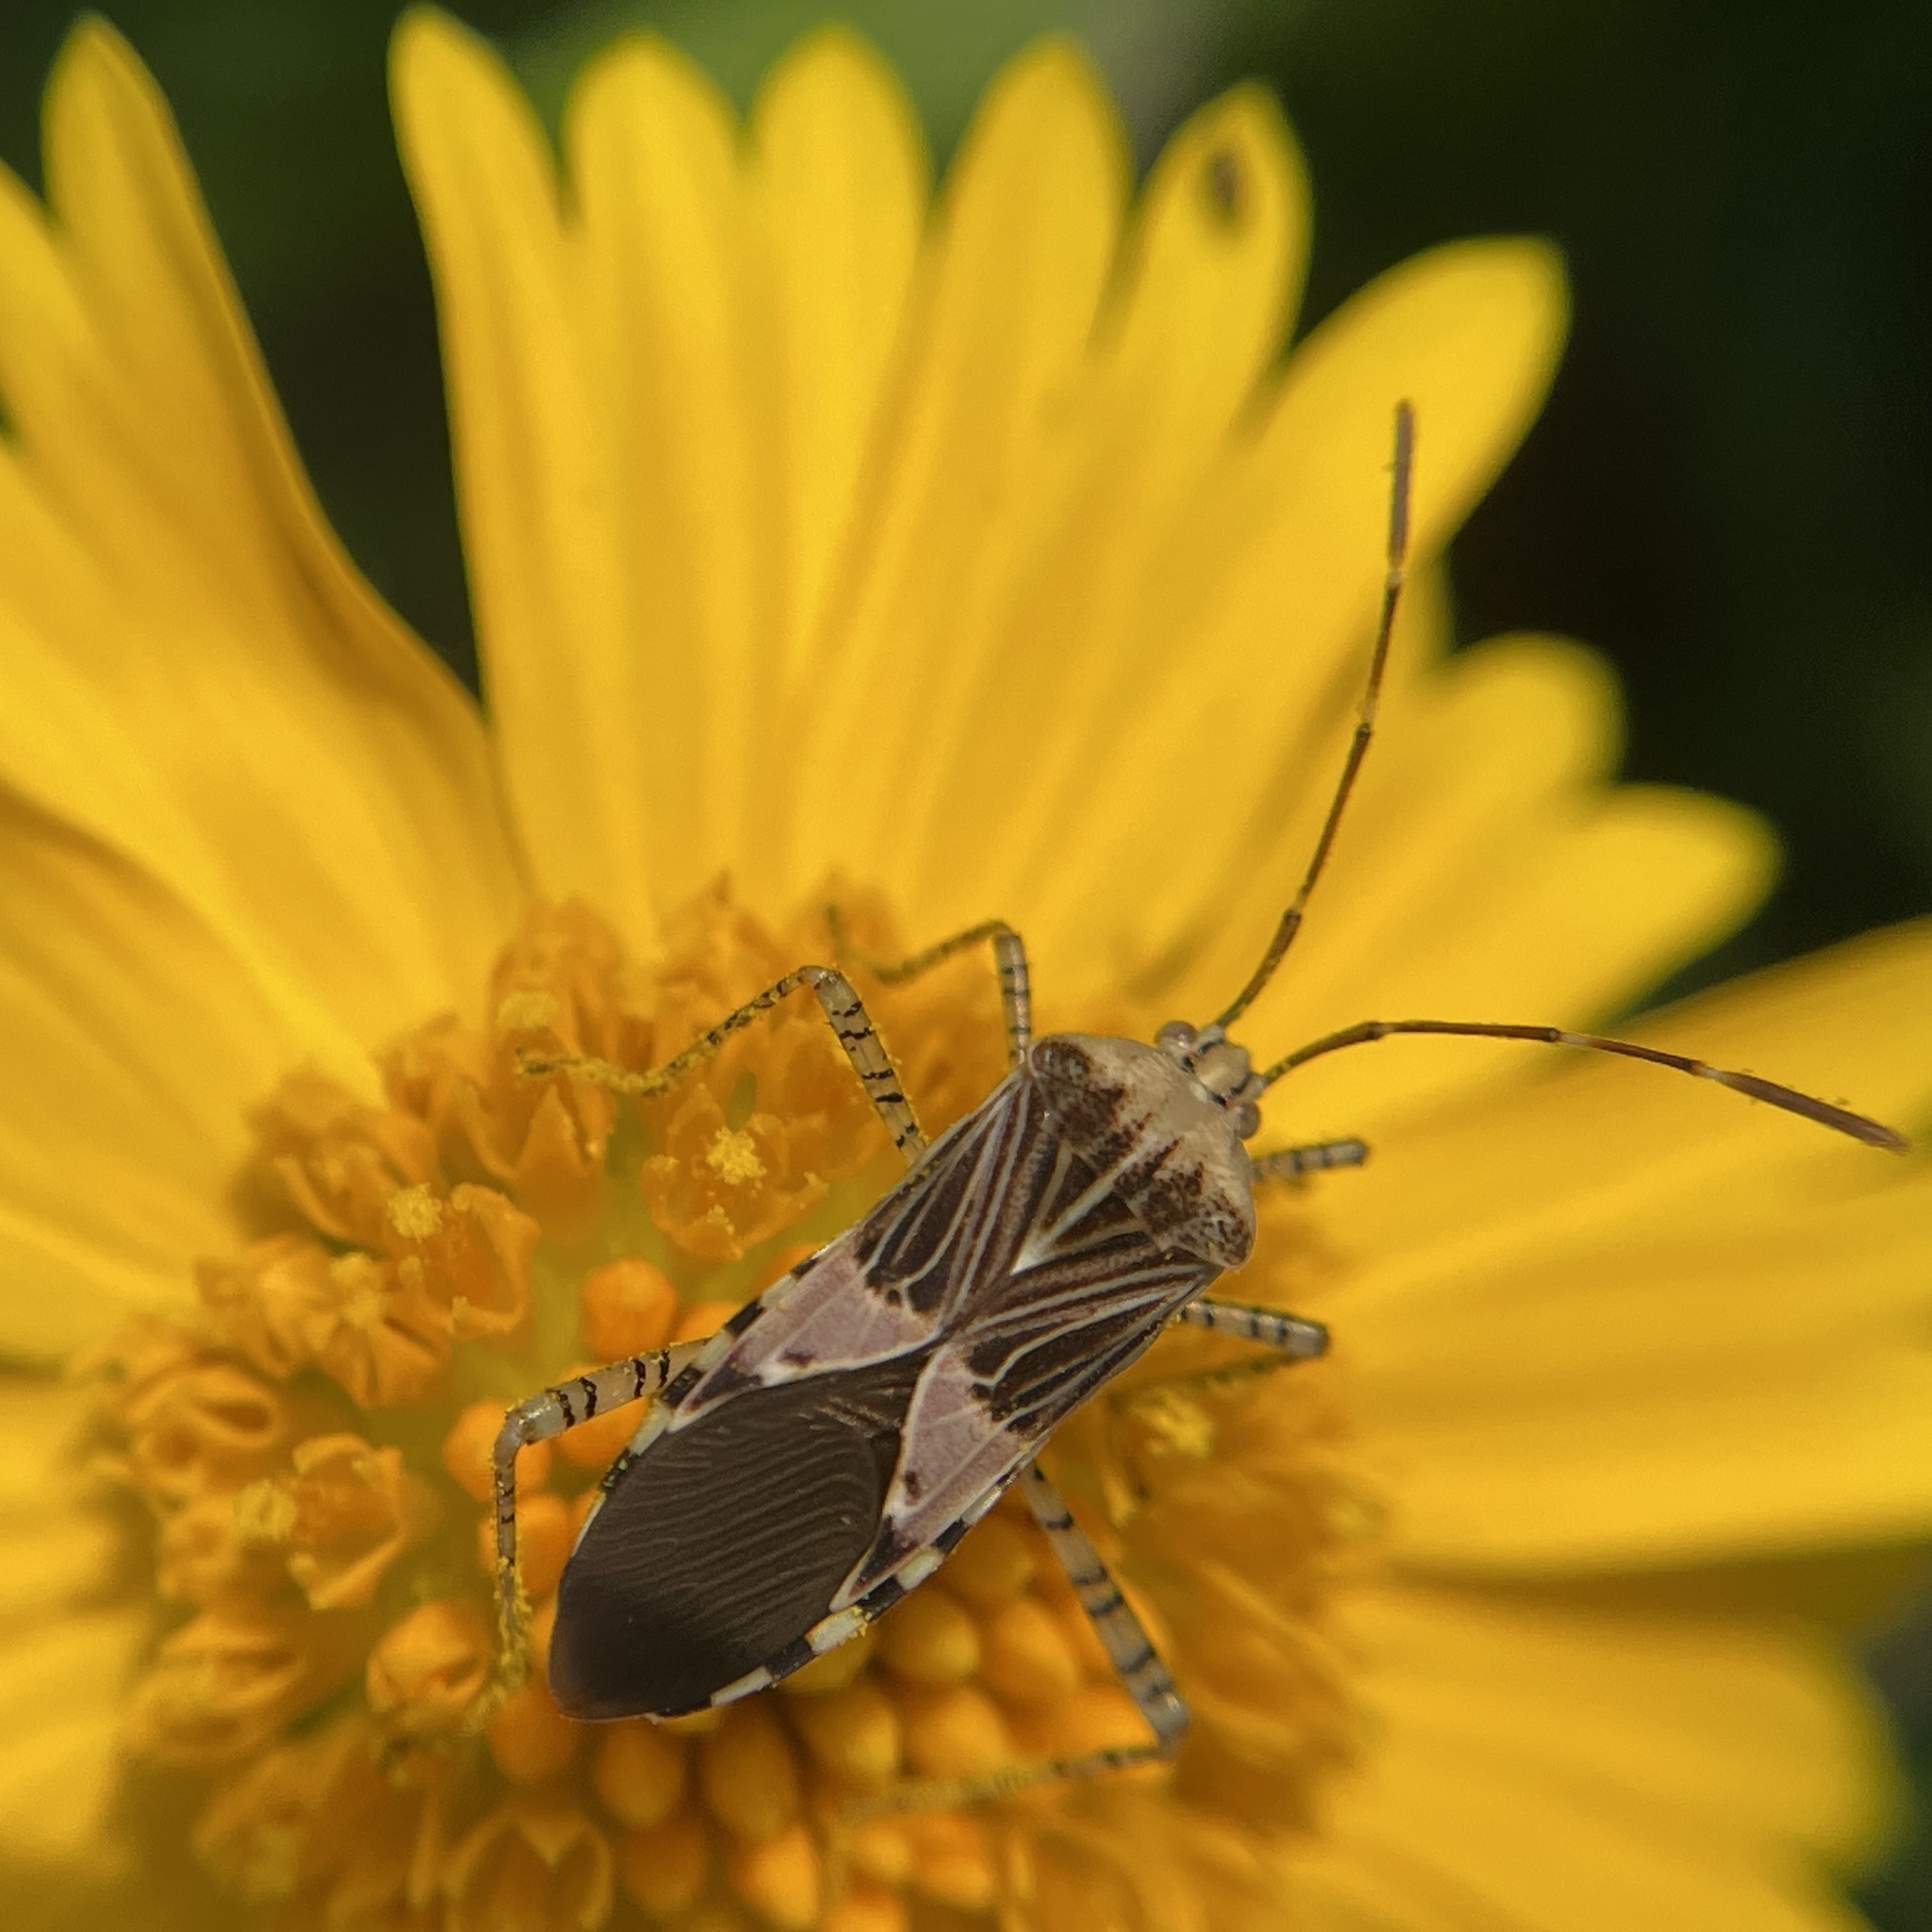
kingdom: Animalia
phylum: Arthropoda
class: Insecta
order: Hemiptera
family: Coreidae
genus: Hypselonotus
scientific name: Hypselonotus punctiventris
